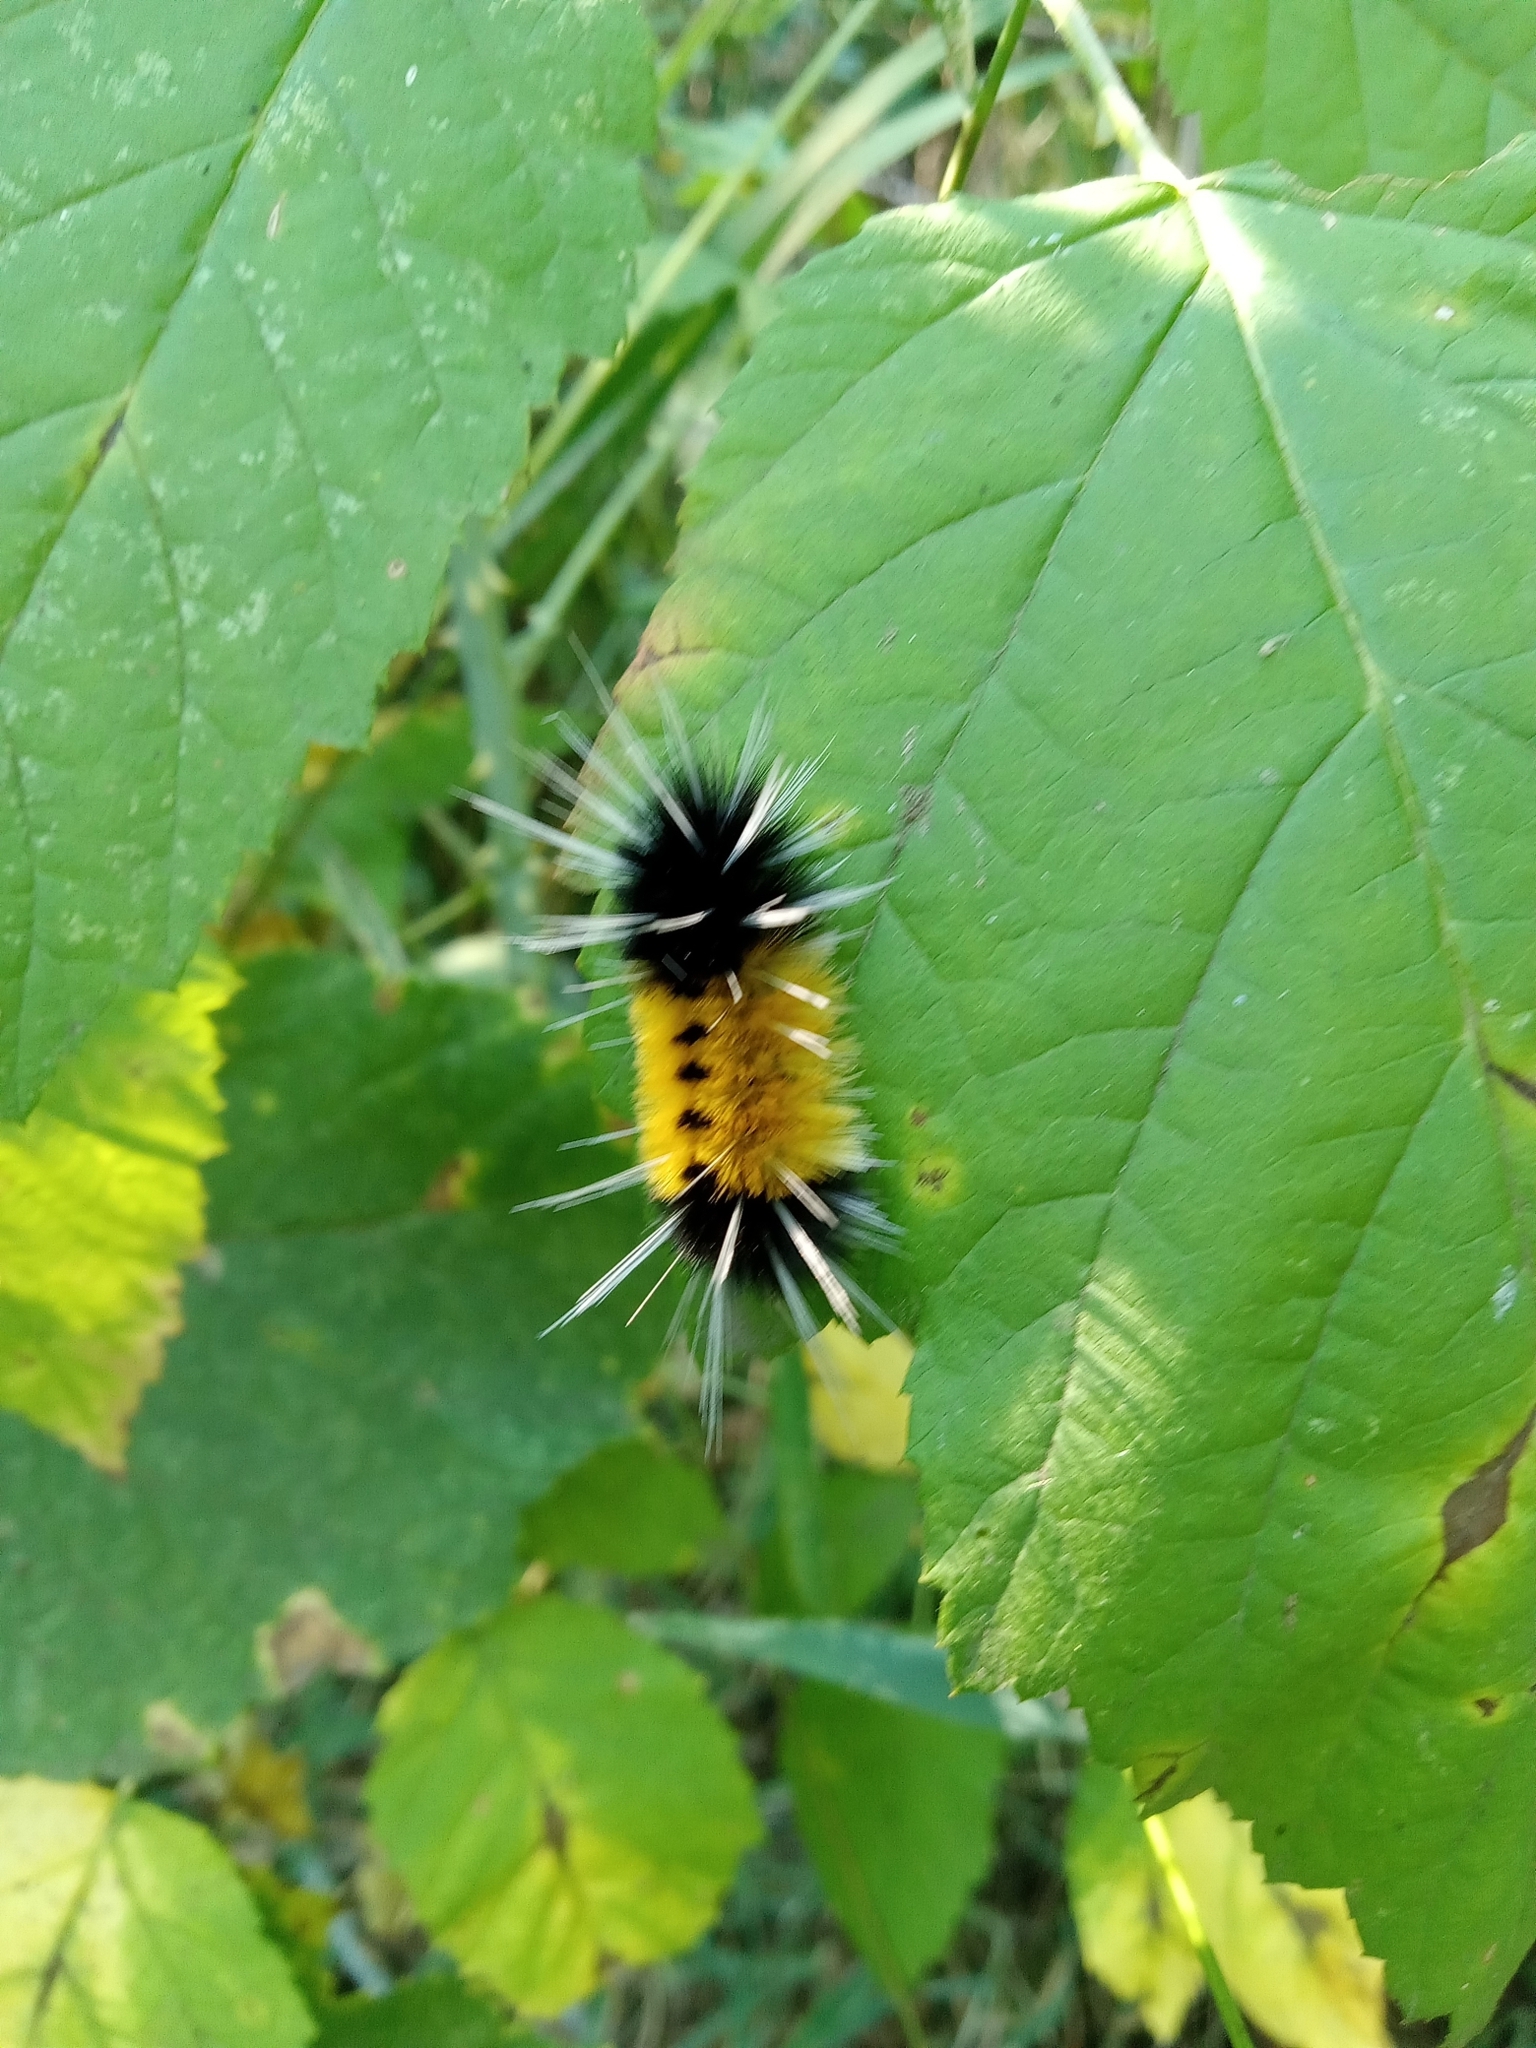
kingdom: Animalia
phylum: Arthropoda
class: Insecta
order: Lepidoptera
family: Erebidae
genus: Lophocampa
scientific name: Lophocampa maculata
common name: Spotted tussock moth
